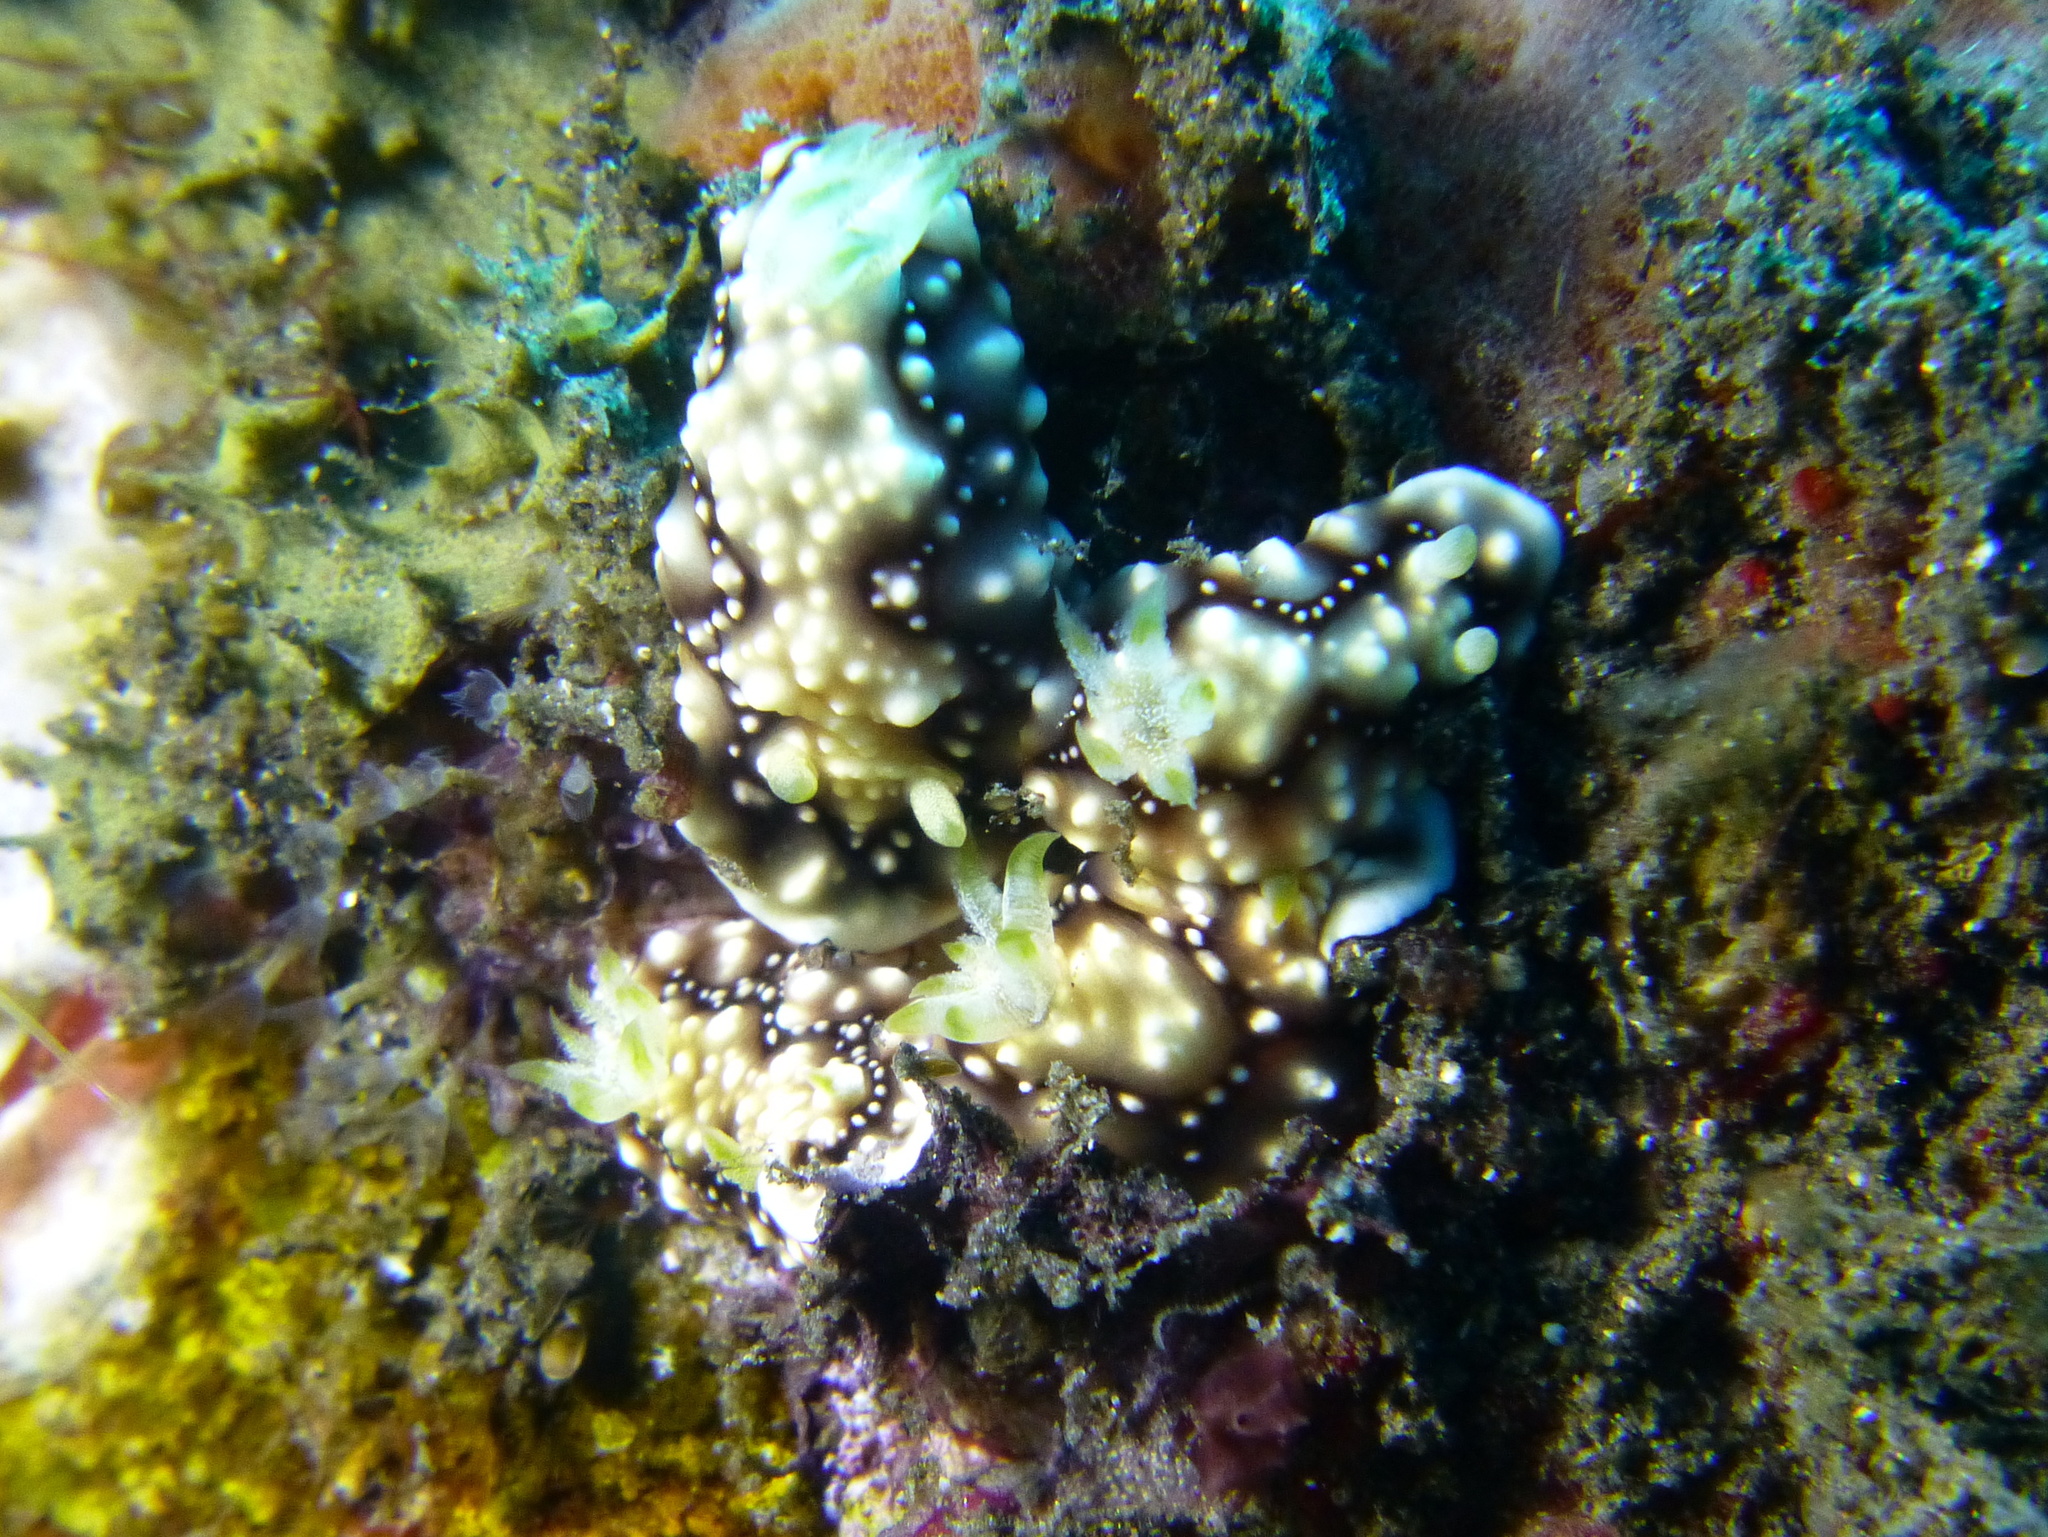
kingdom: Animalia
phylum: Mollusca
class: Gastropoda
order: Nudibranchia
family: Chromodorididae
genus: Goniobranchus
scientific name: Goniobranchus geometricus
